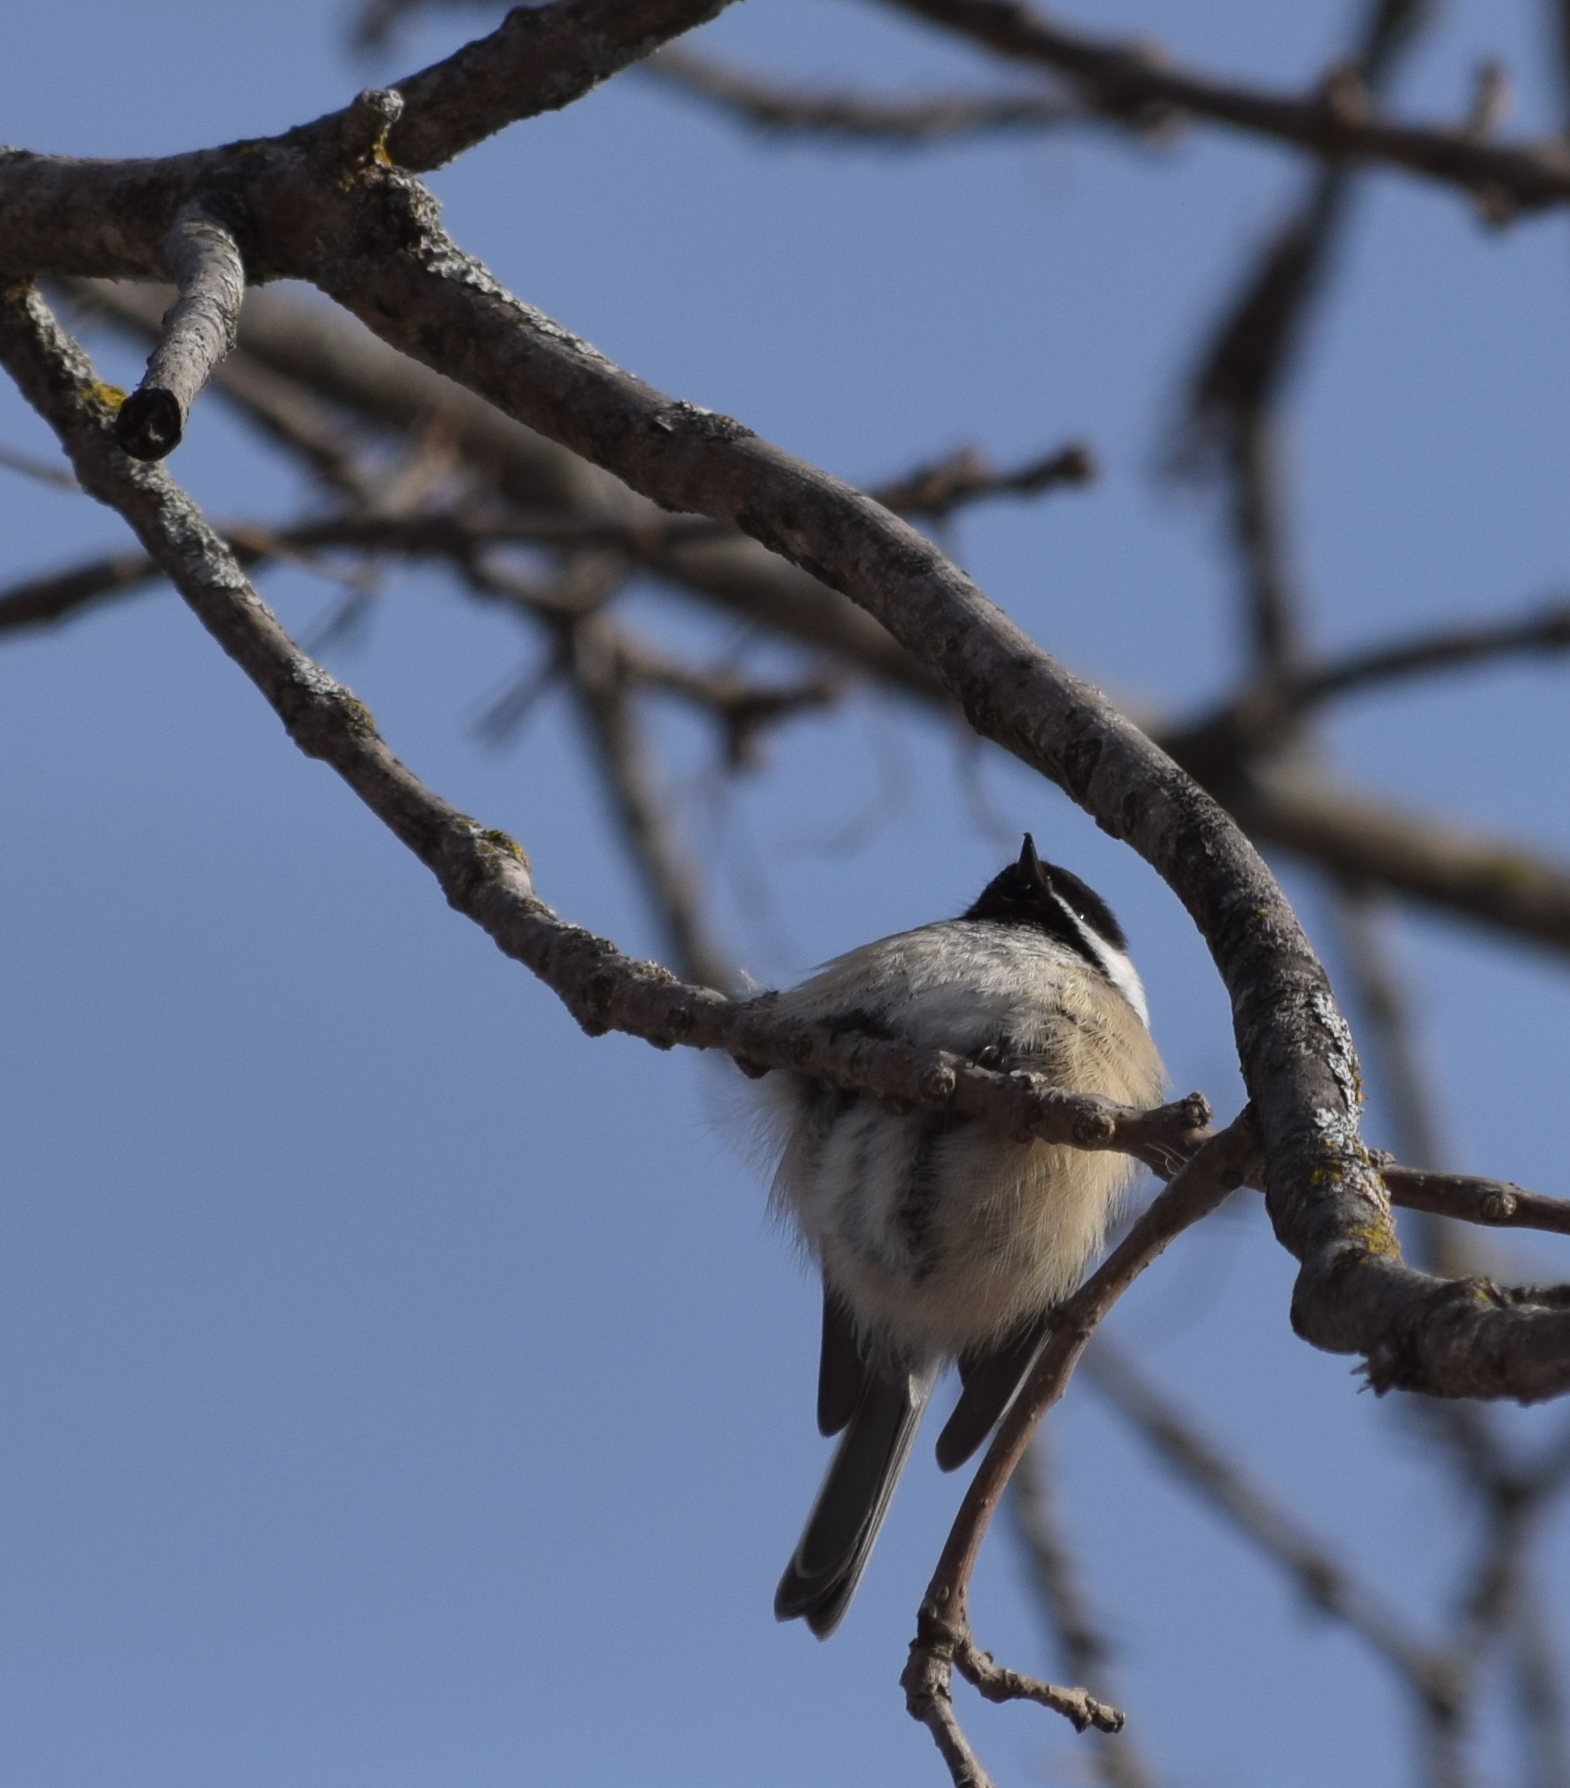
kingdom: Animalia
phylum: Chordata
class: Aves
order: Passeriformes
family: Paridae
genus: Poecile
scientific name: Poecile atricapillus
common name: Black-capped chickadee
